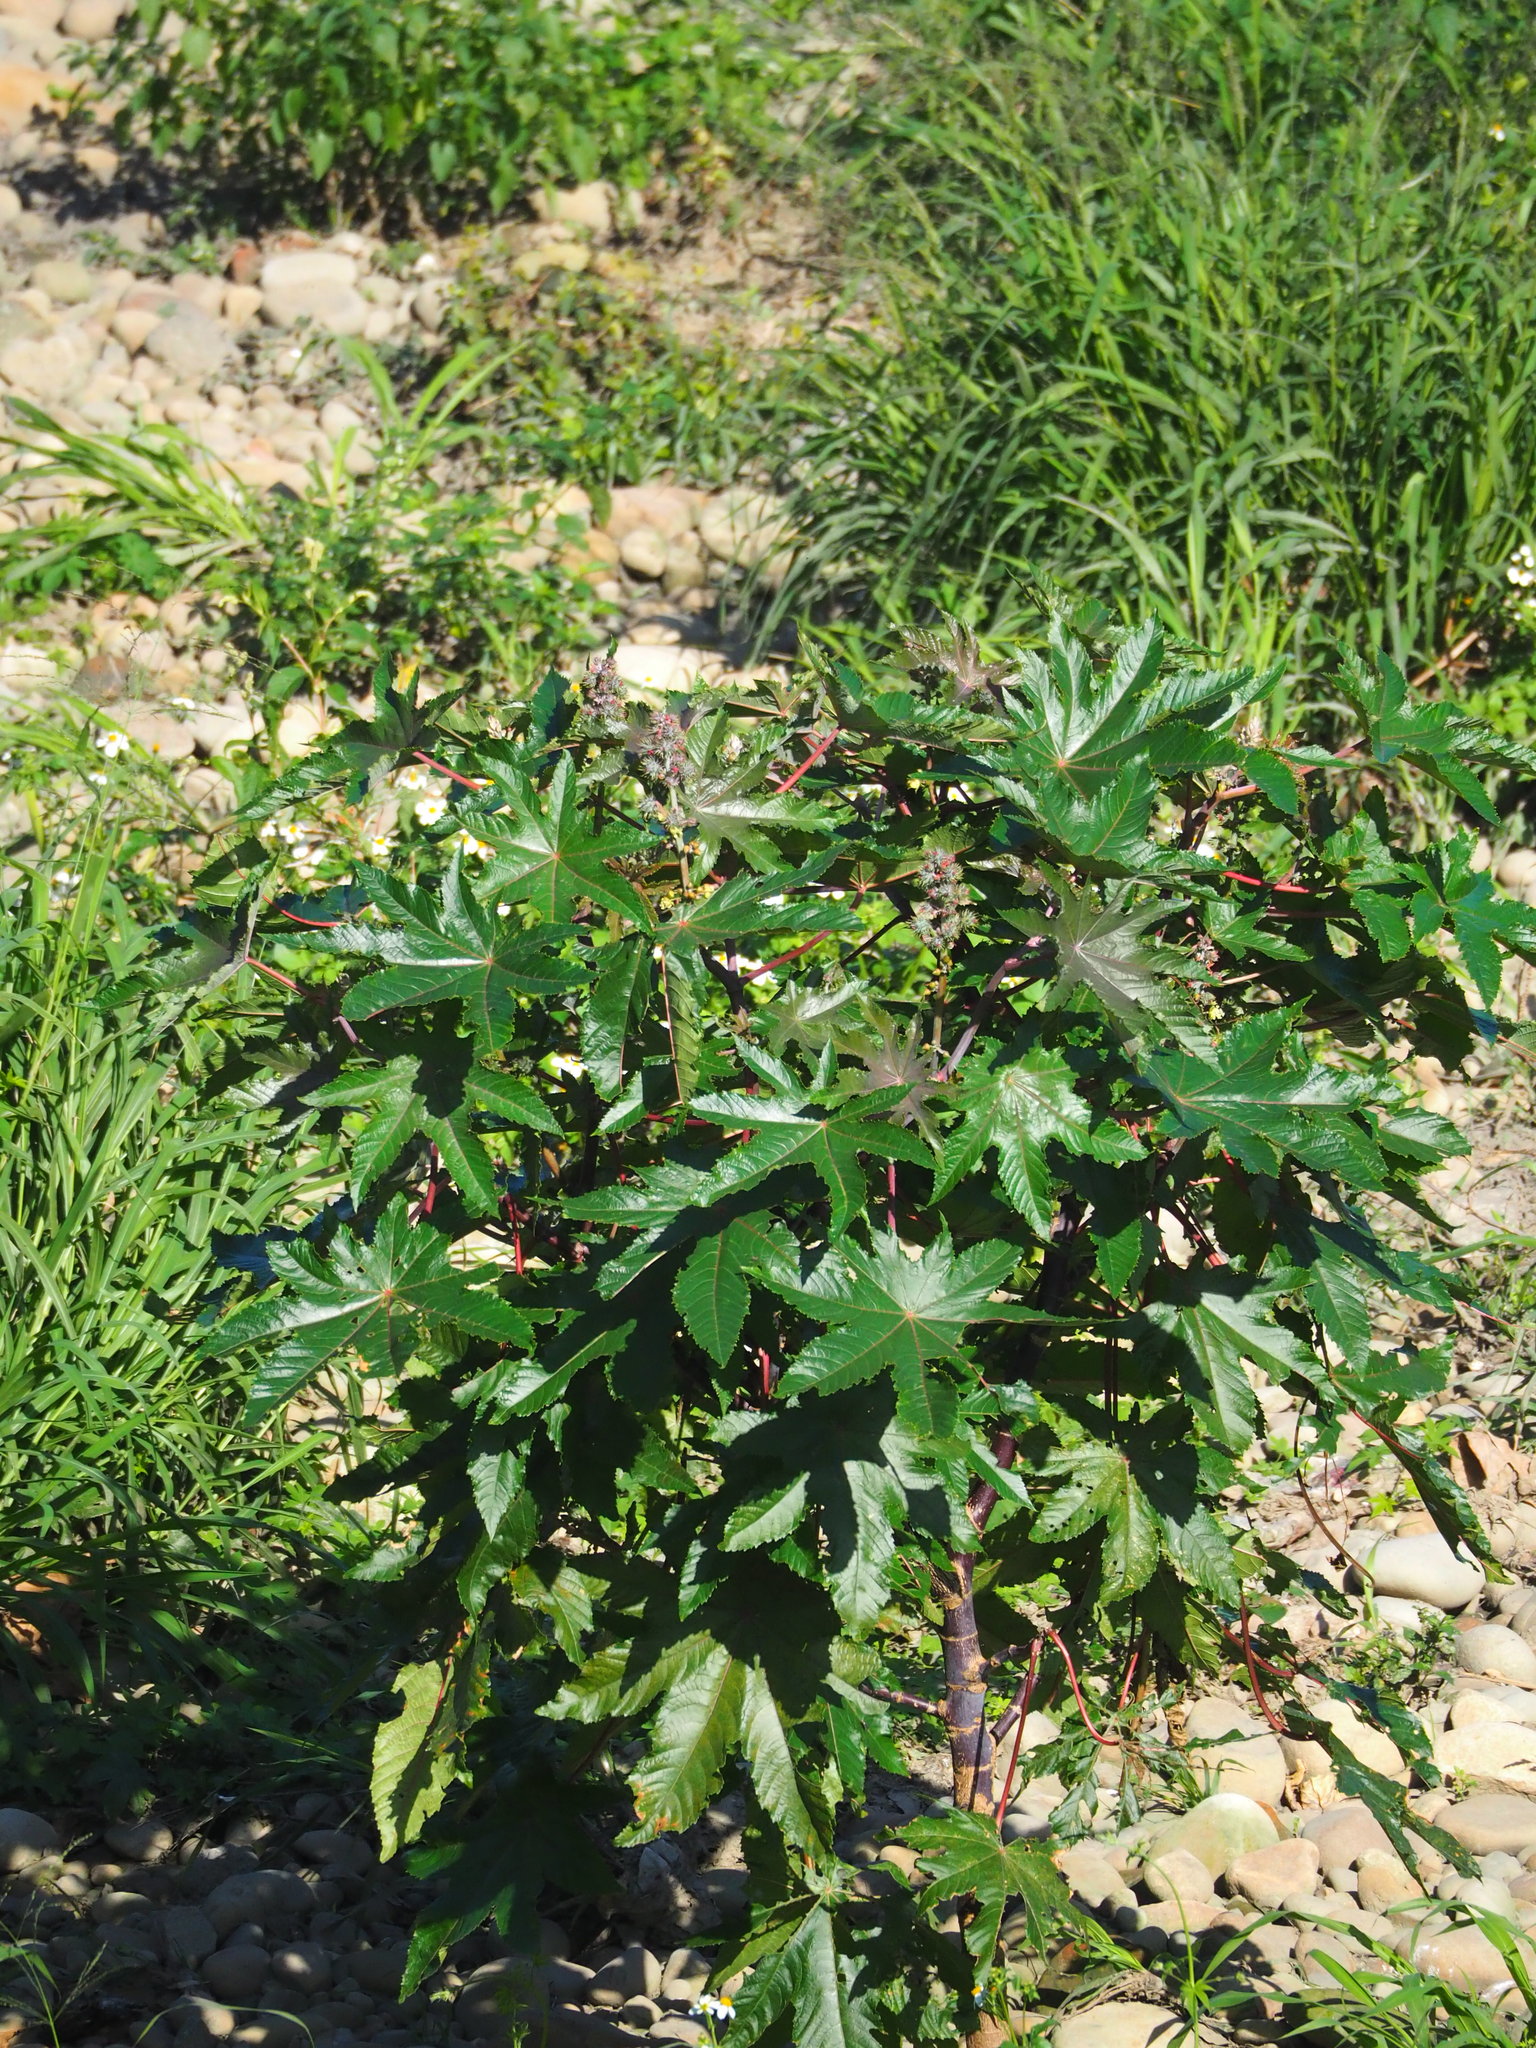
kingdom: Plantae
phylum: Tracheophyta
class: Magnoliopsida
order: Malpighiales
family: Euphorbiaceae
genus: Ricinus
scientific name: Ricinus communis
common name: Castor-oil-plant
